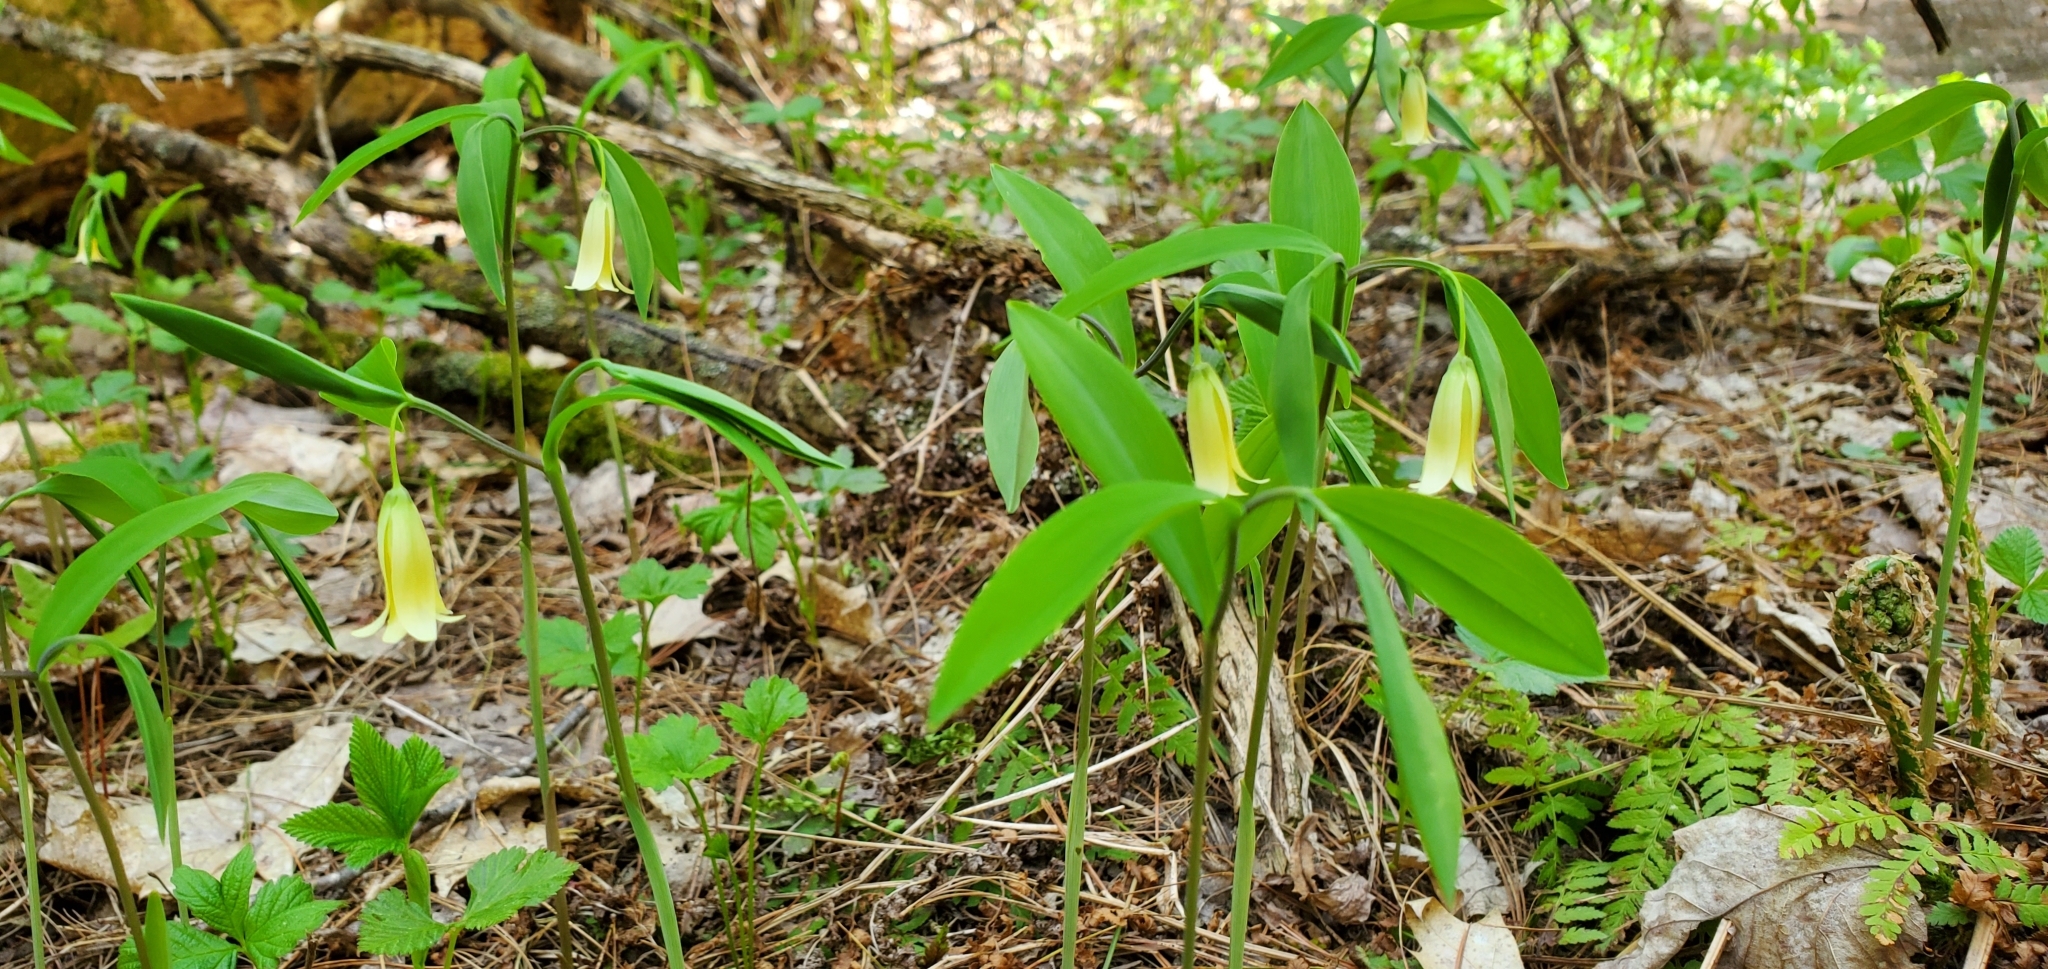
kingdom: Plantae
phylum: Tracheophyta
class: Liliopsida
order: Liliales
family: Colchicaceae
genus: Uvularia
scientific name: Uvularia sessilifolia
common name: Straw-lily
